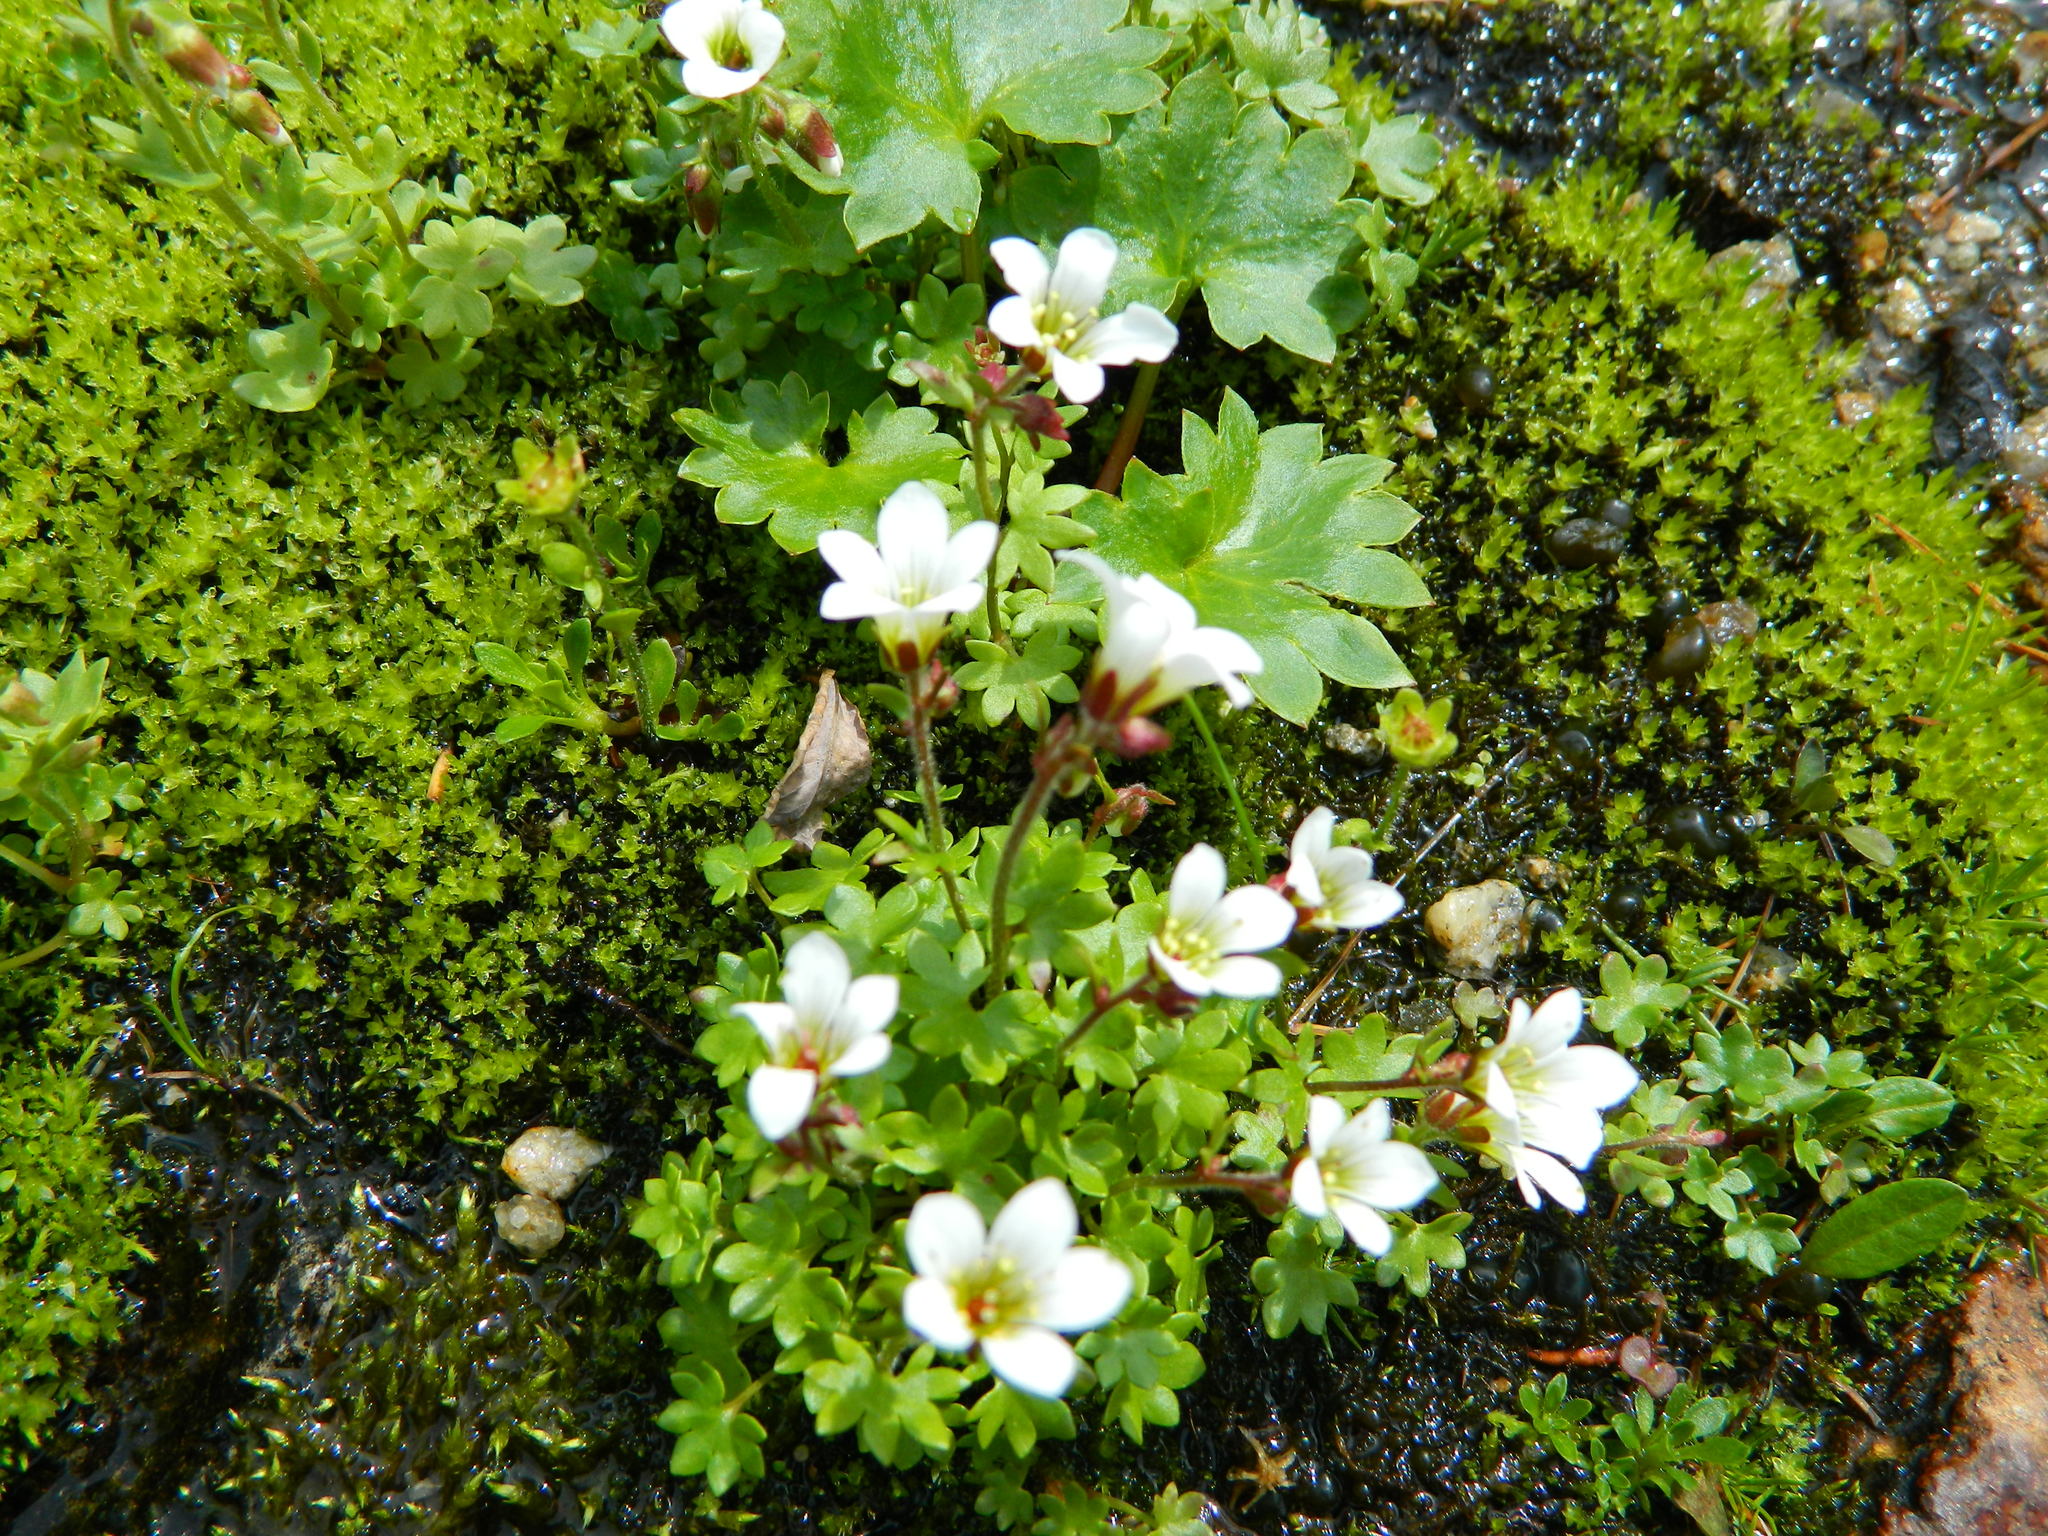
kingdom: Plantae
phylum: Tracheophyta
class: Magnoliopsida
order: Saxifragales
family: Saxifragaceae
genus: Saxifraga
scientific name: Saxifraga sibirica
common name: Siberian saxifrage
